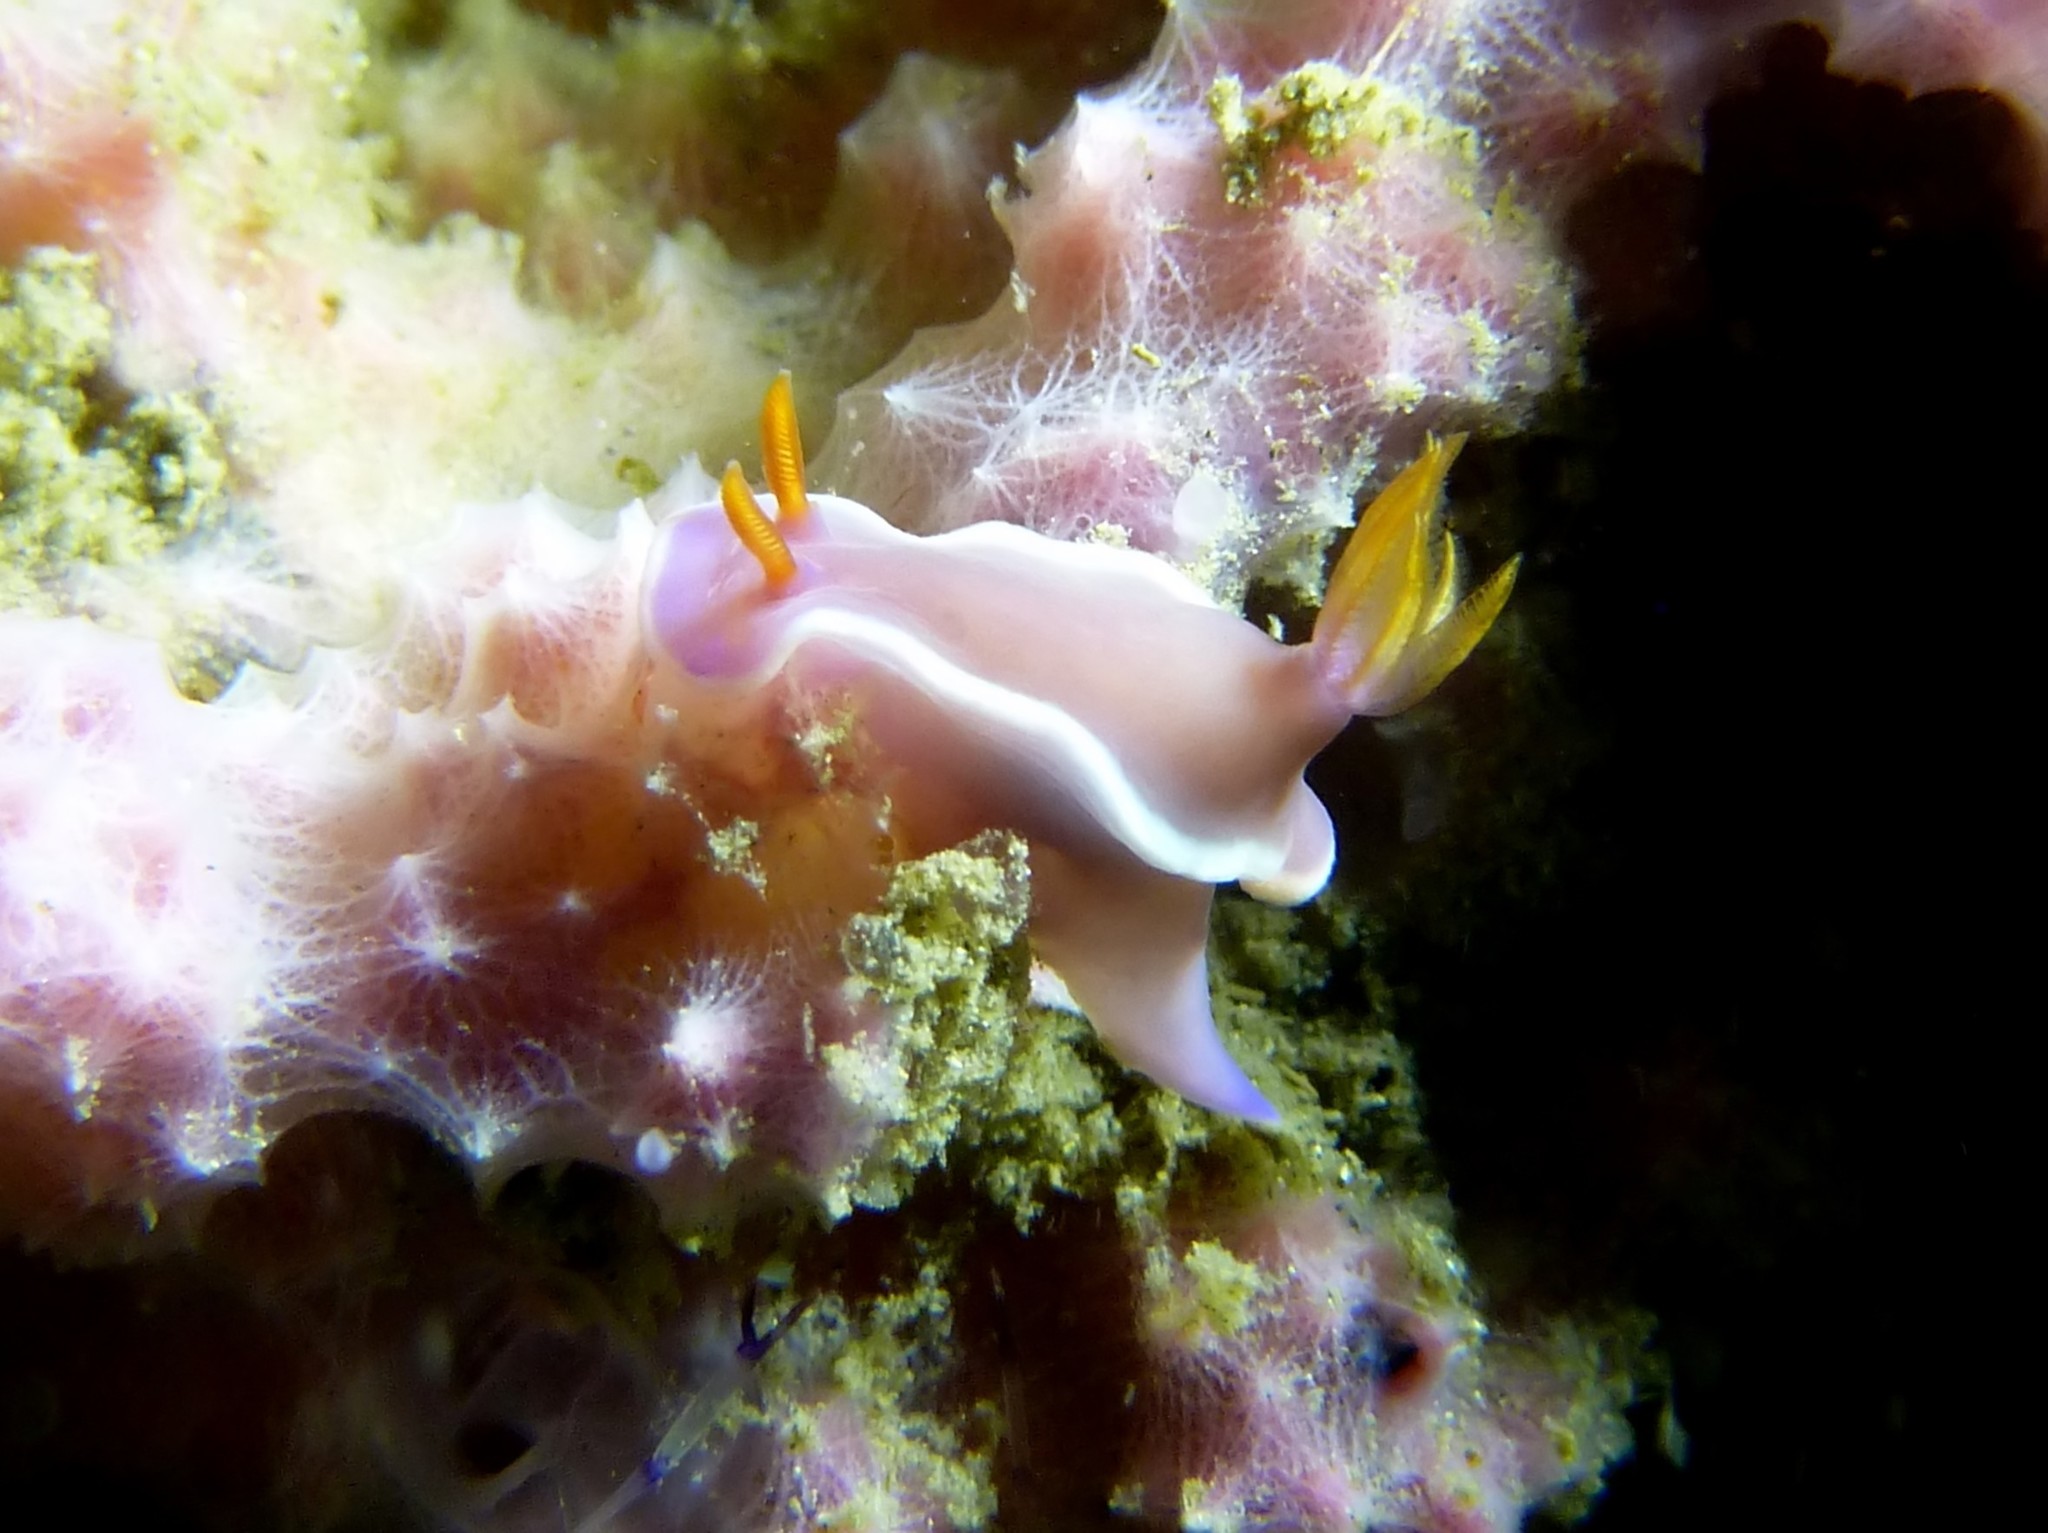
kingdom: Animalia
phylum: Mollusca
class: Gastropoda
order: Nudibranchia
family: Chromodorididae
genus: Hypselodoris
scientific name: Hypselodoris variobranchia
